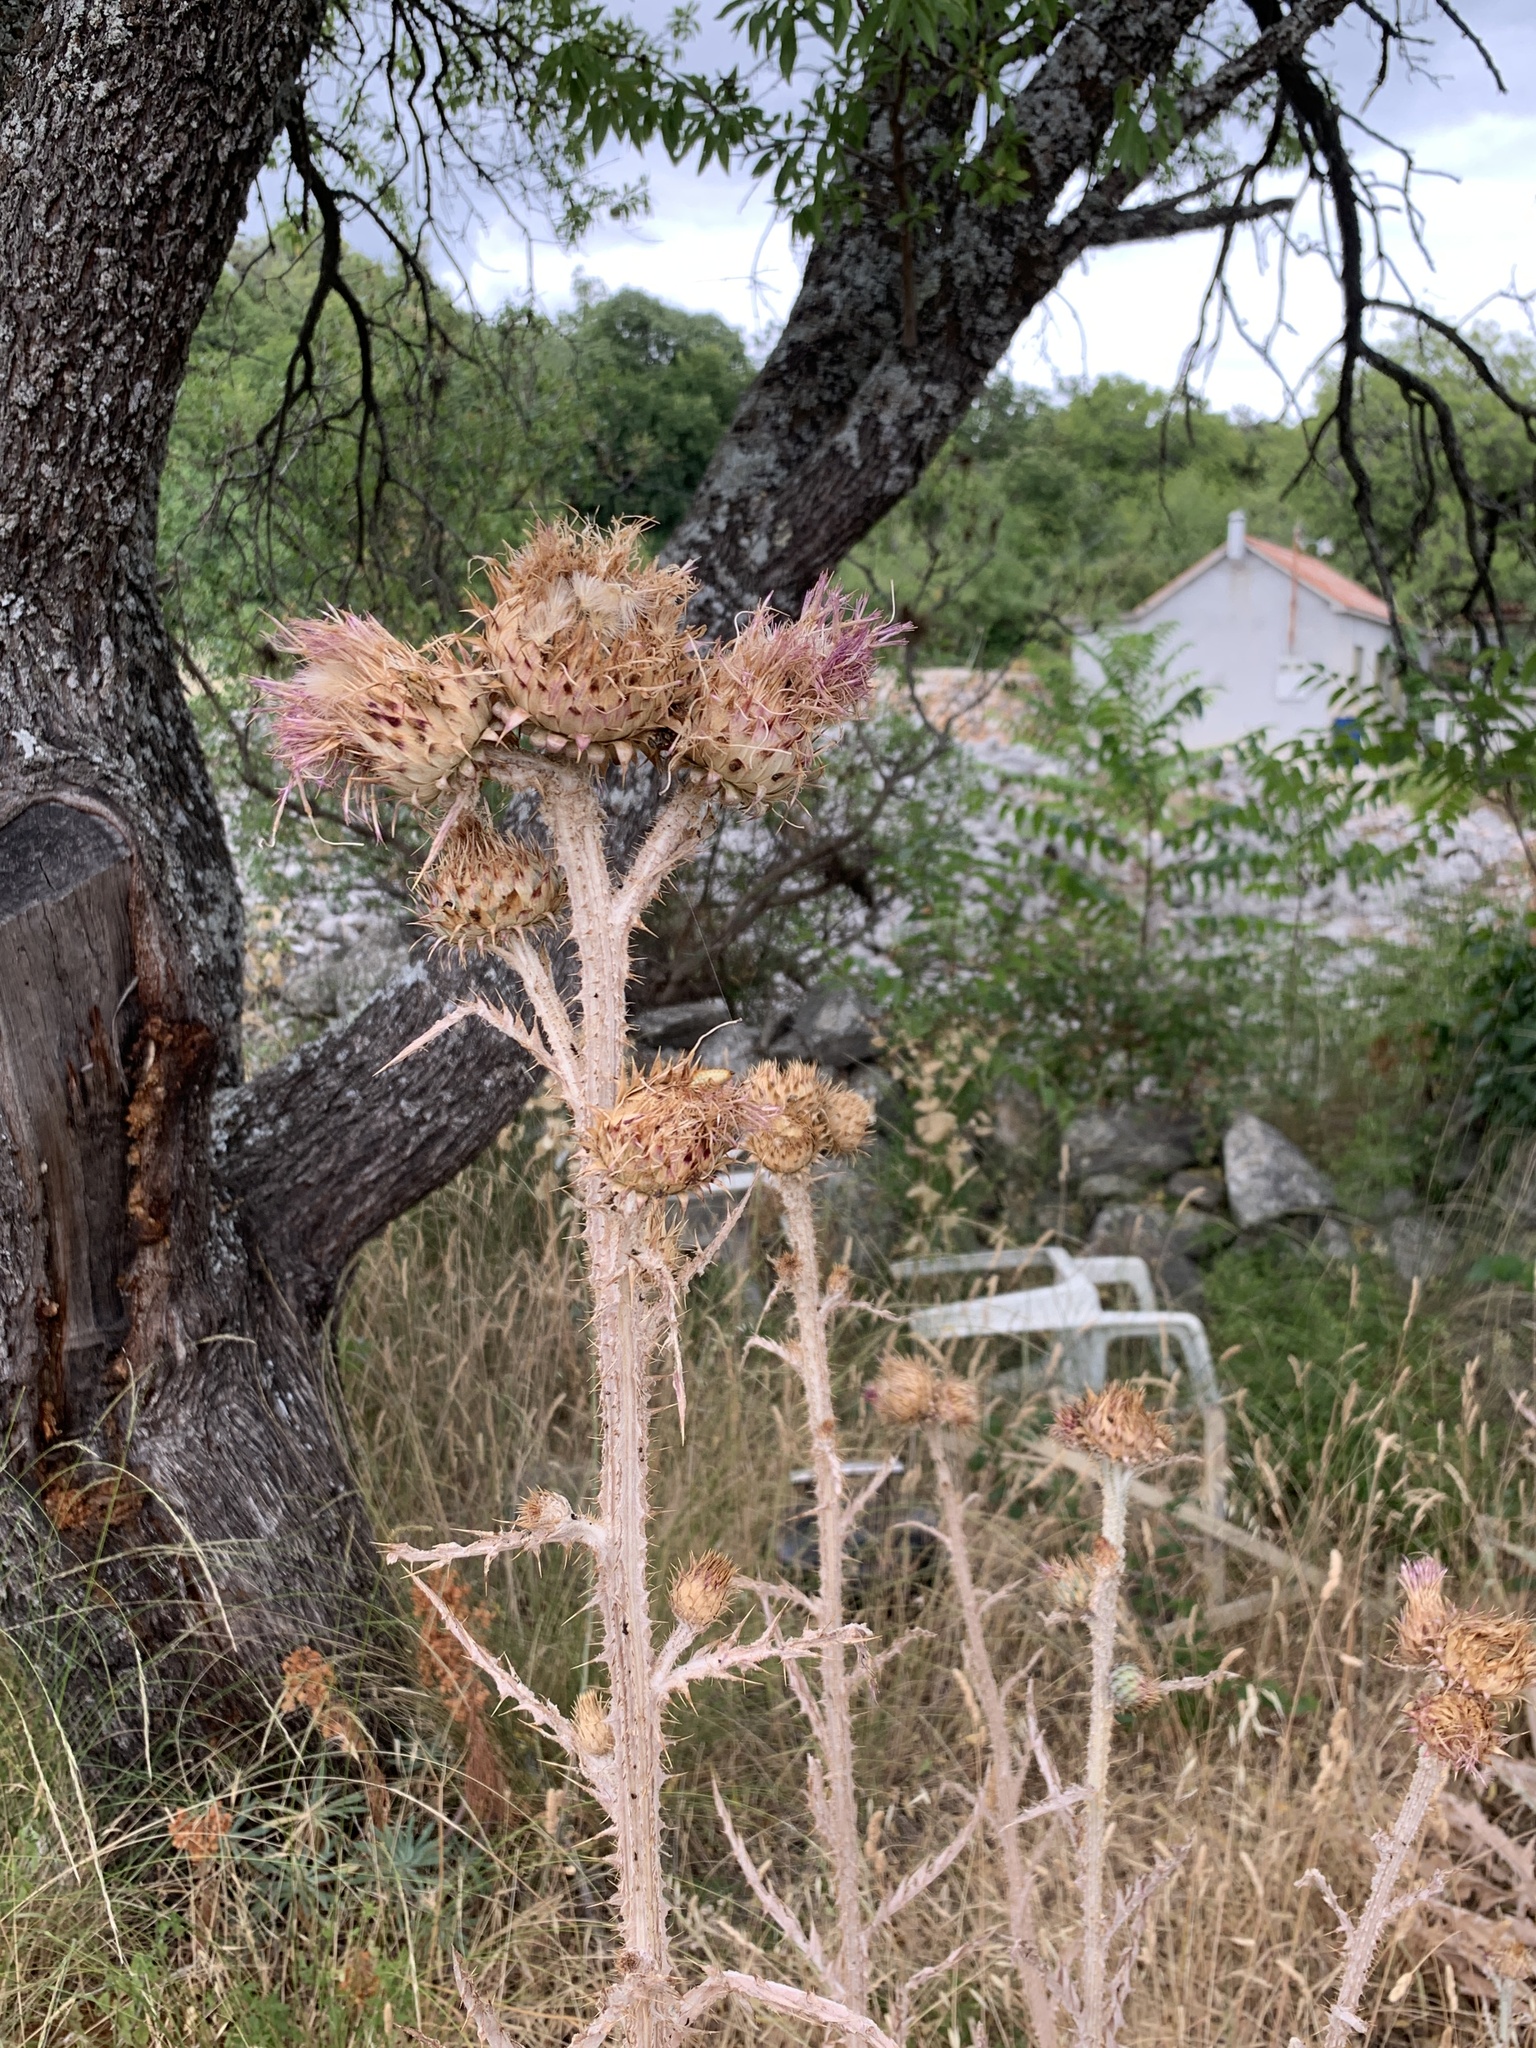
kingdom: Plantae
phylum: Tracheophyta
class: Magnoliopsida
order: Asterales
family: Asteraceae
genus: Onopordum
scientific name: Onopordum illyricum
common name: Illyrian thistle
